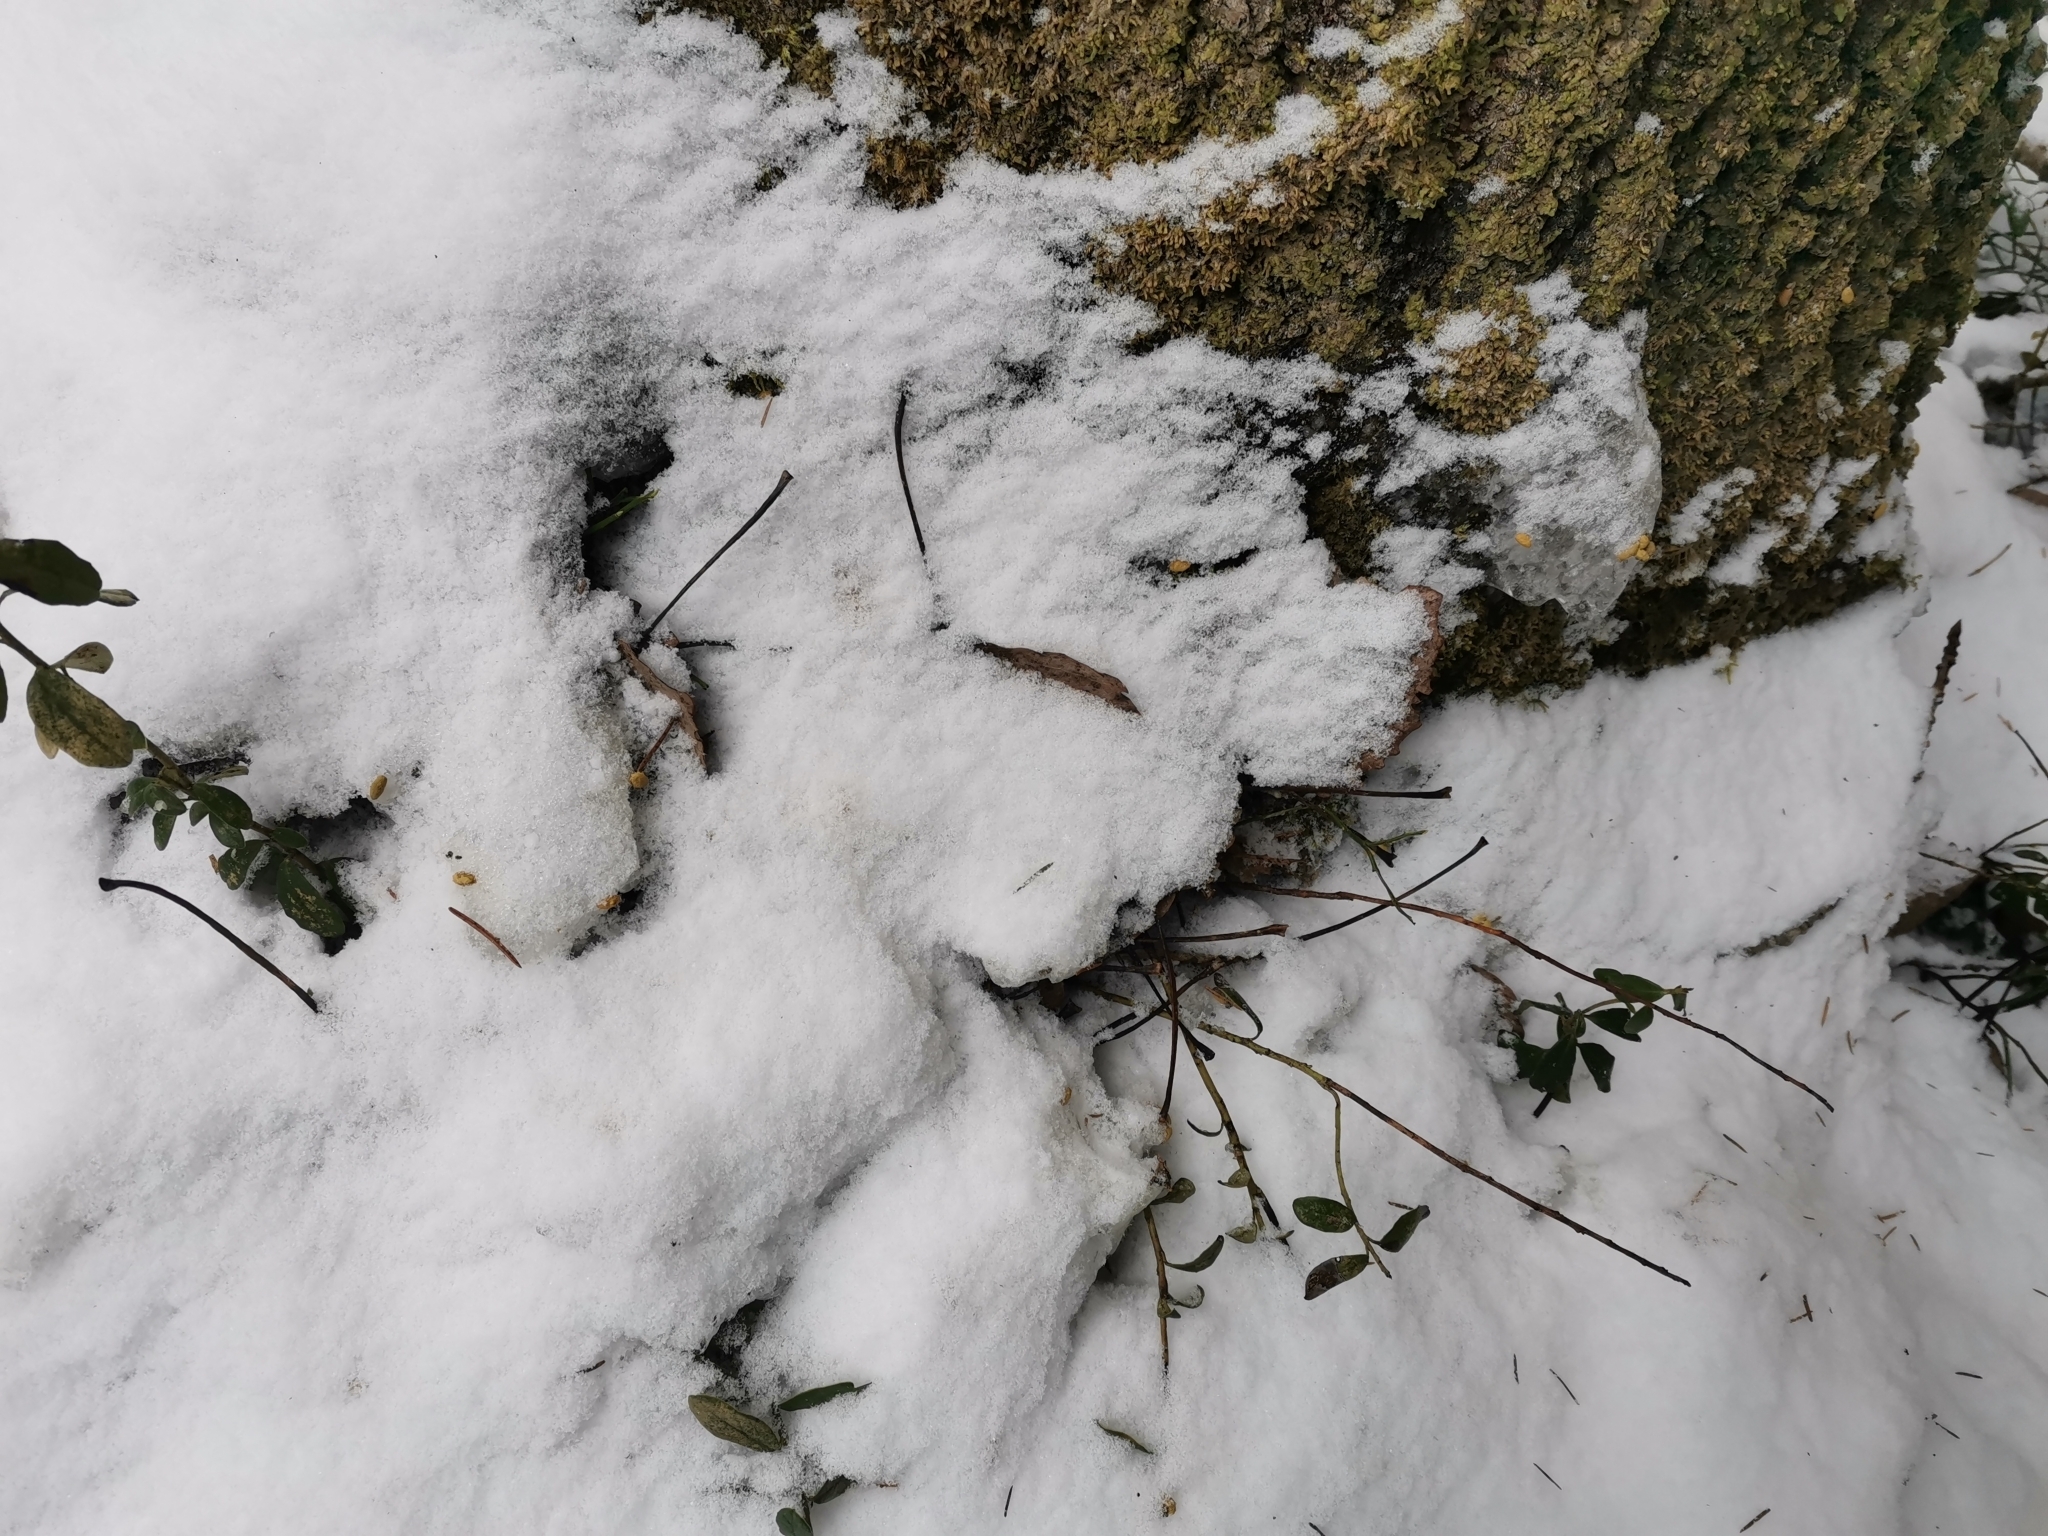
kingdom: Animalia
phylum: Chordata
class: Mammalia
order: Rodentia
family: Sciuridae
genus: Pteromys
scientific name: Pteromys volans
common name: Siberian flying squirrel
